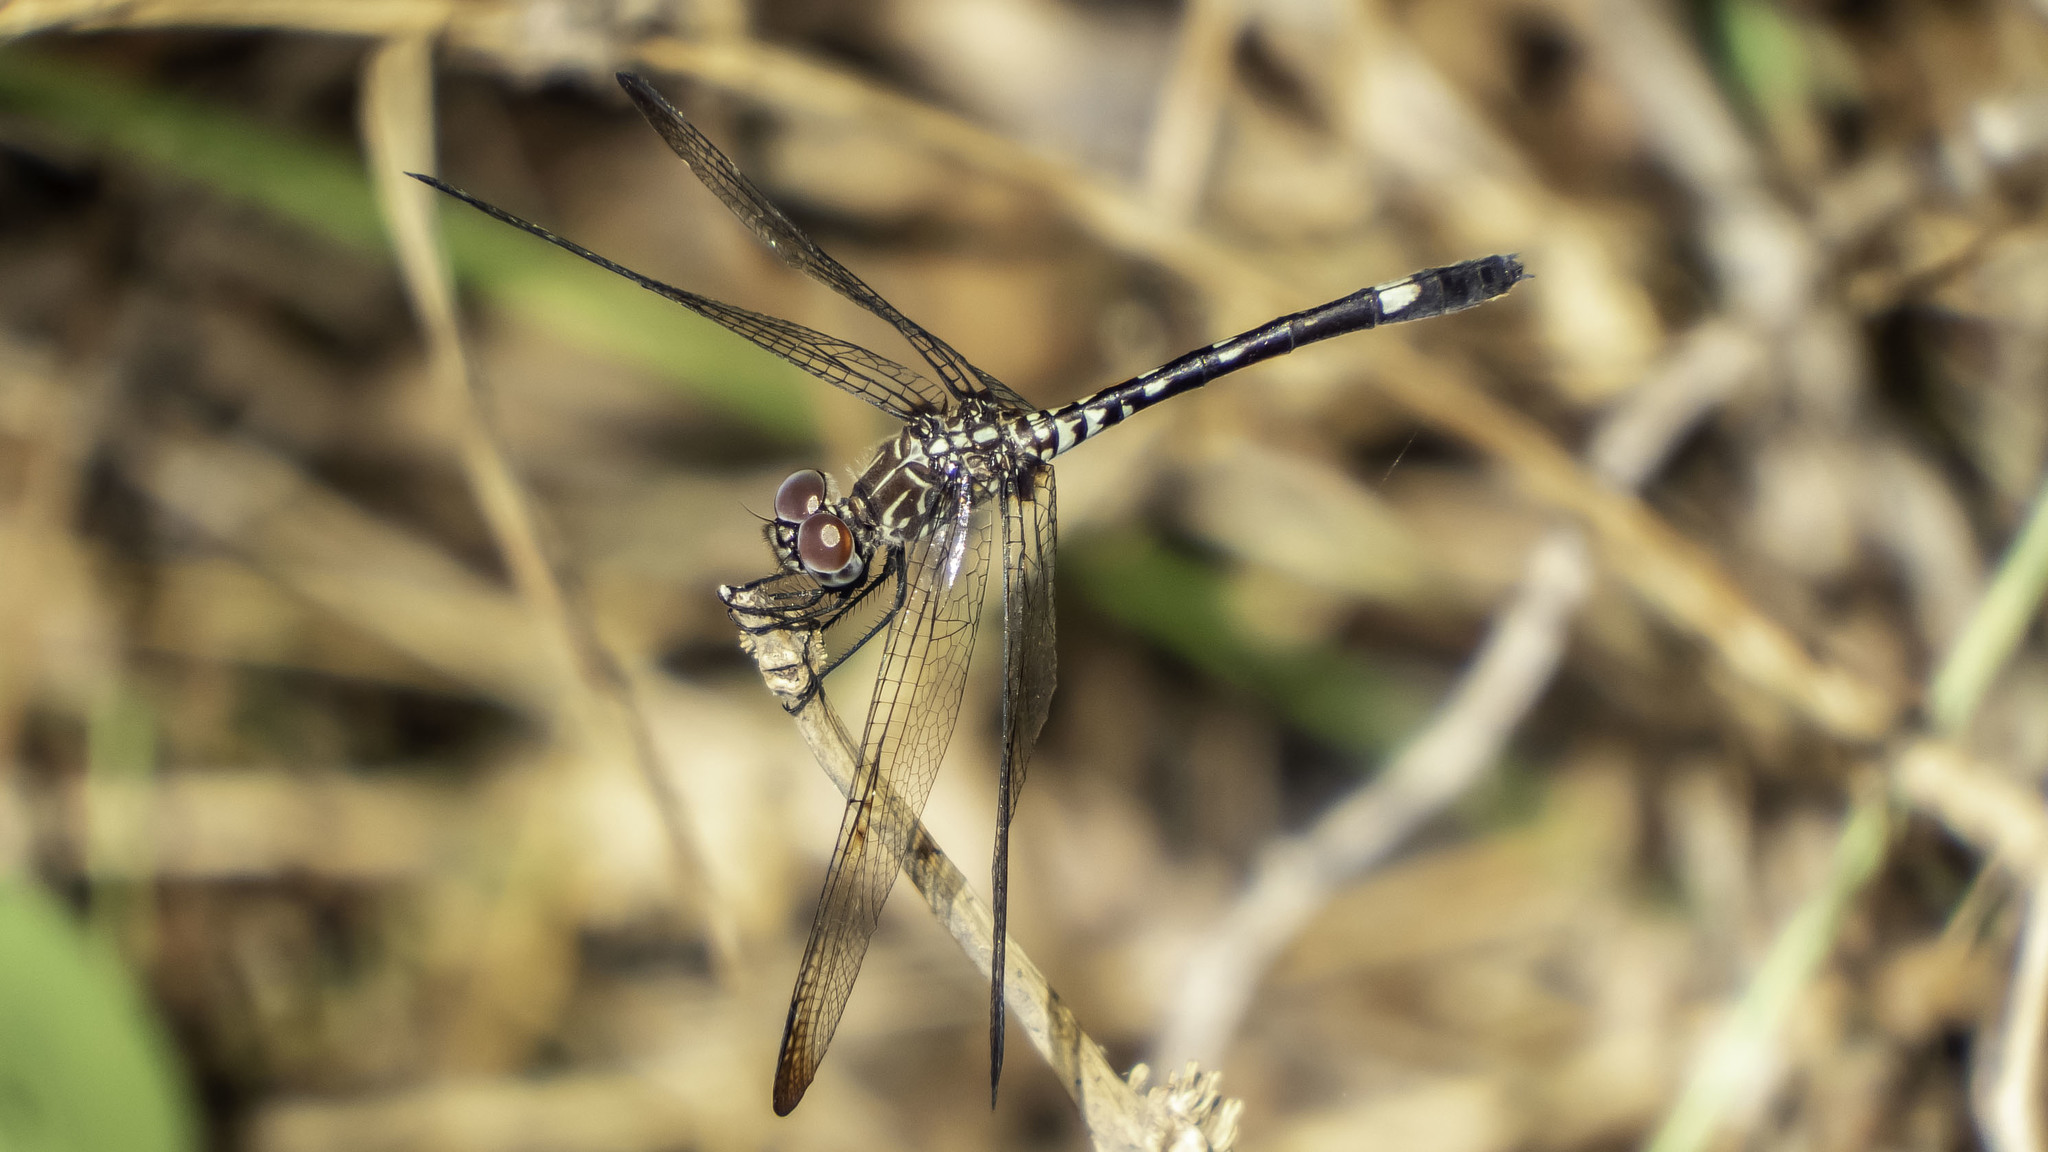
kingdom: Animalia
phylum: Arthropoda
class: Insecta
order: Odonata
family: Libellulidae
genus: Dythemis
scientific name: Dythemis velox
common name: Swift setwing
